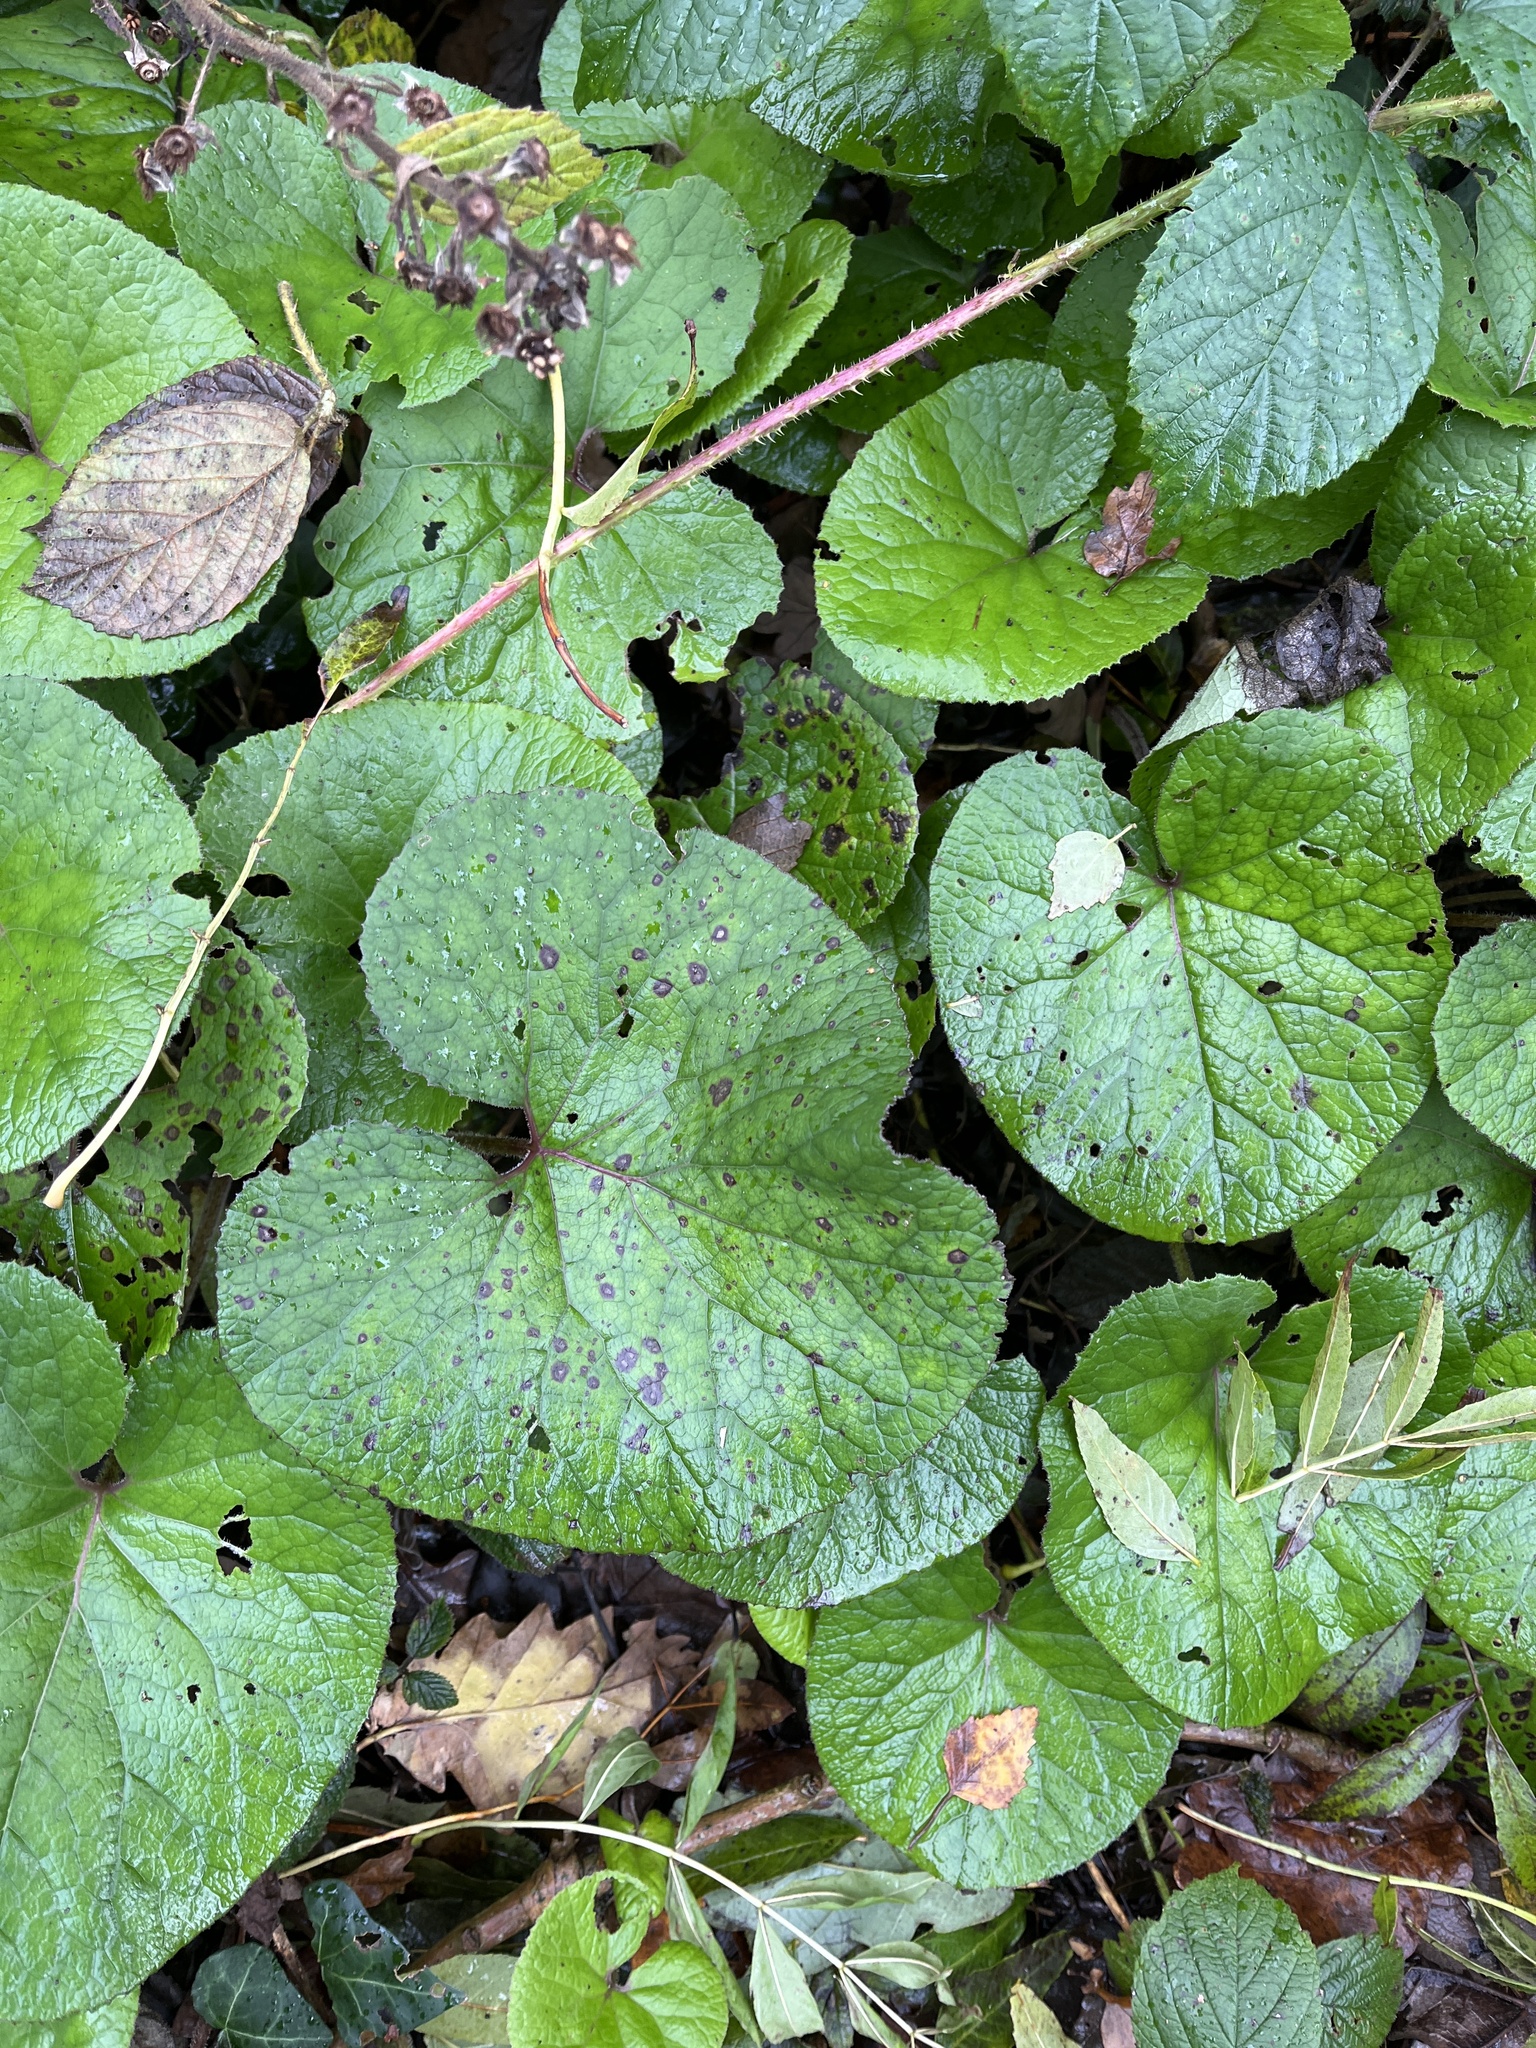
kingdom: Plantae
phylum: Tracheophyta
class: Magnoliopsida
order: Asterales
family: Asteraceae
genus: Petasites
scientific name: Petasites pyrenaicus
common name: Winter heliotrope
